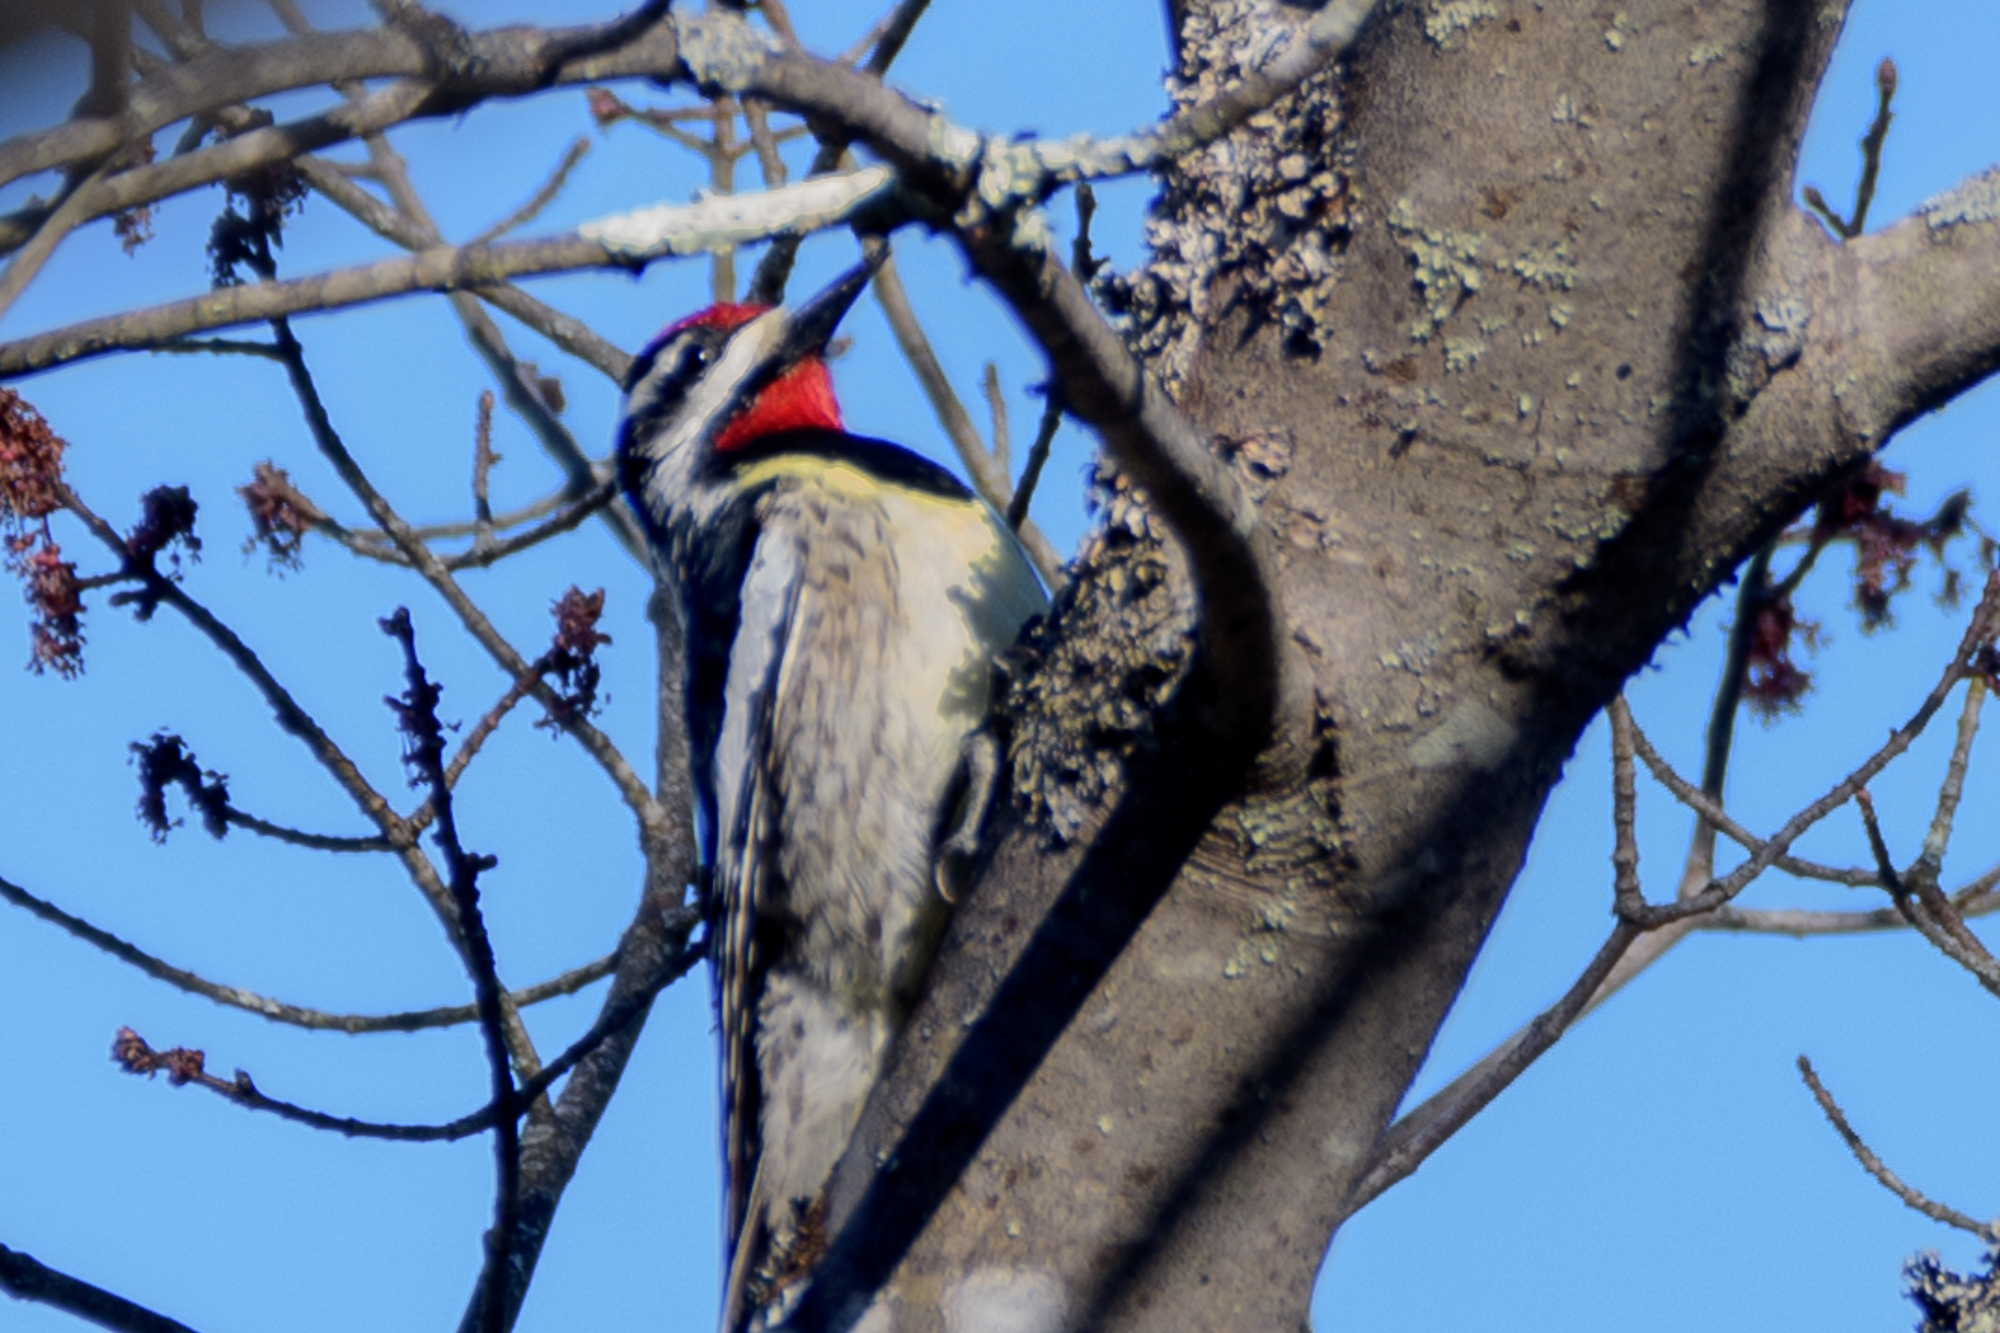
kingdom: Animalia
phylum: Chordata
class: Aves
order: Piciformes
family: Picidae
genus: Sphyrapicus
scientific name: Sphyrapicus varius
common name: Yellow-bellied sapsucker
